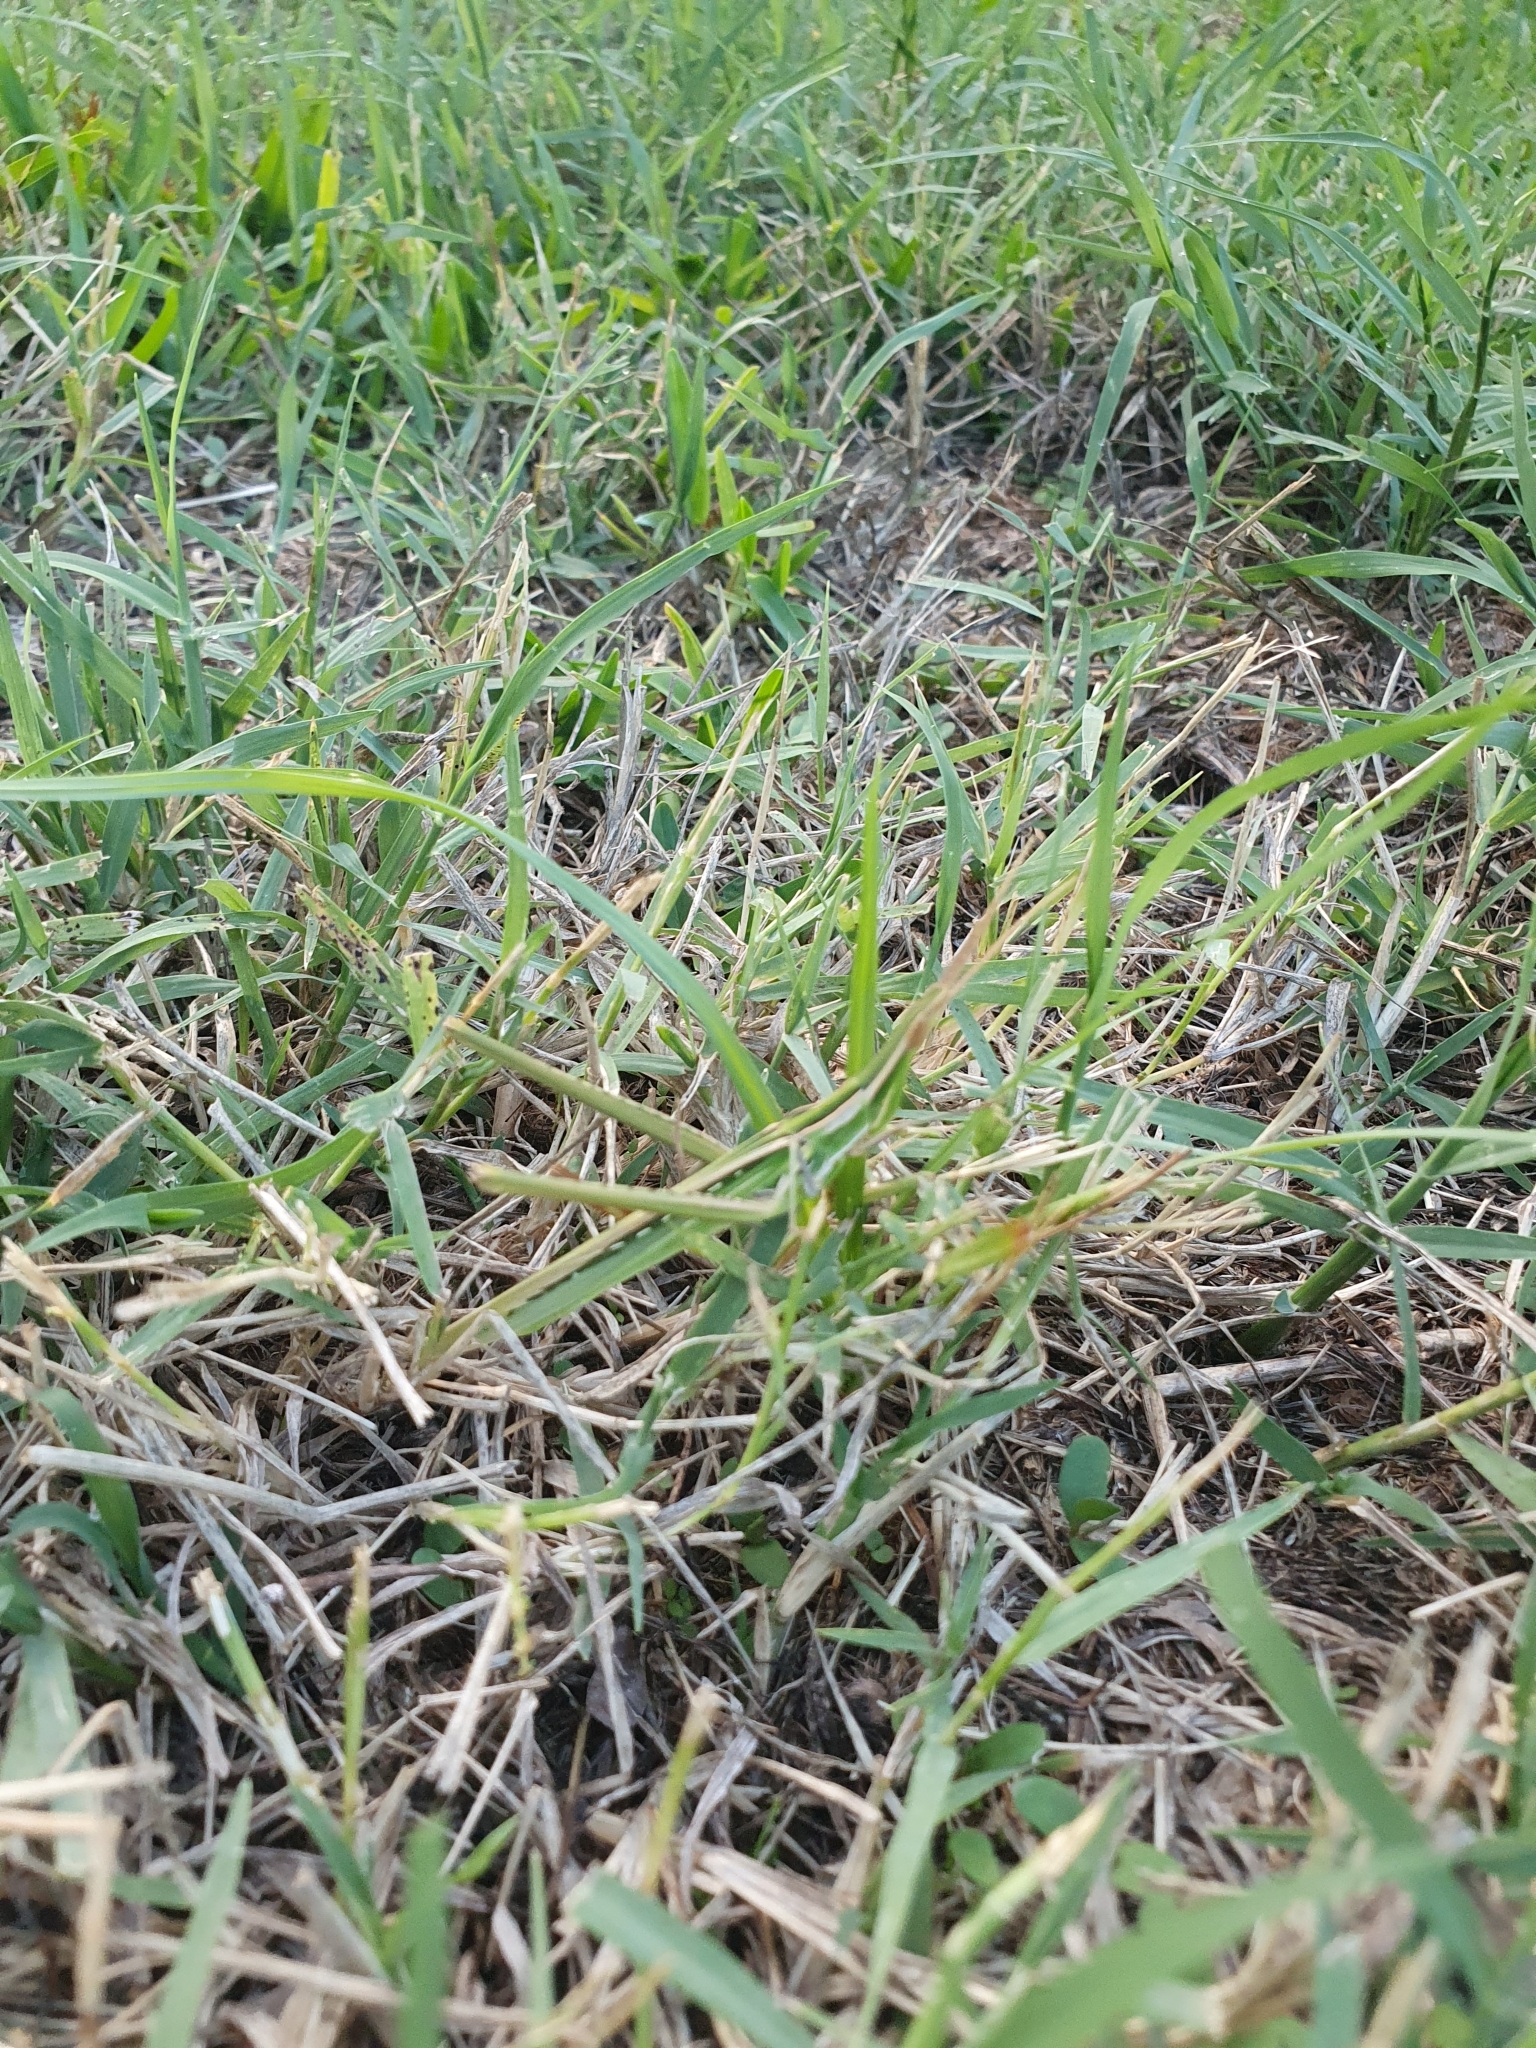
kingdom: Animalia
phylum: Arthropoda
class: Insecta
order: Orthoptera
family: Acrididae
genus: Acrida
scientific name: Acrida ungarica
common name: Common cone-headed grasshopper
